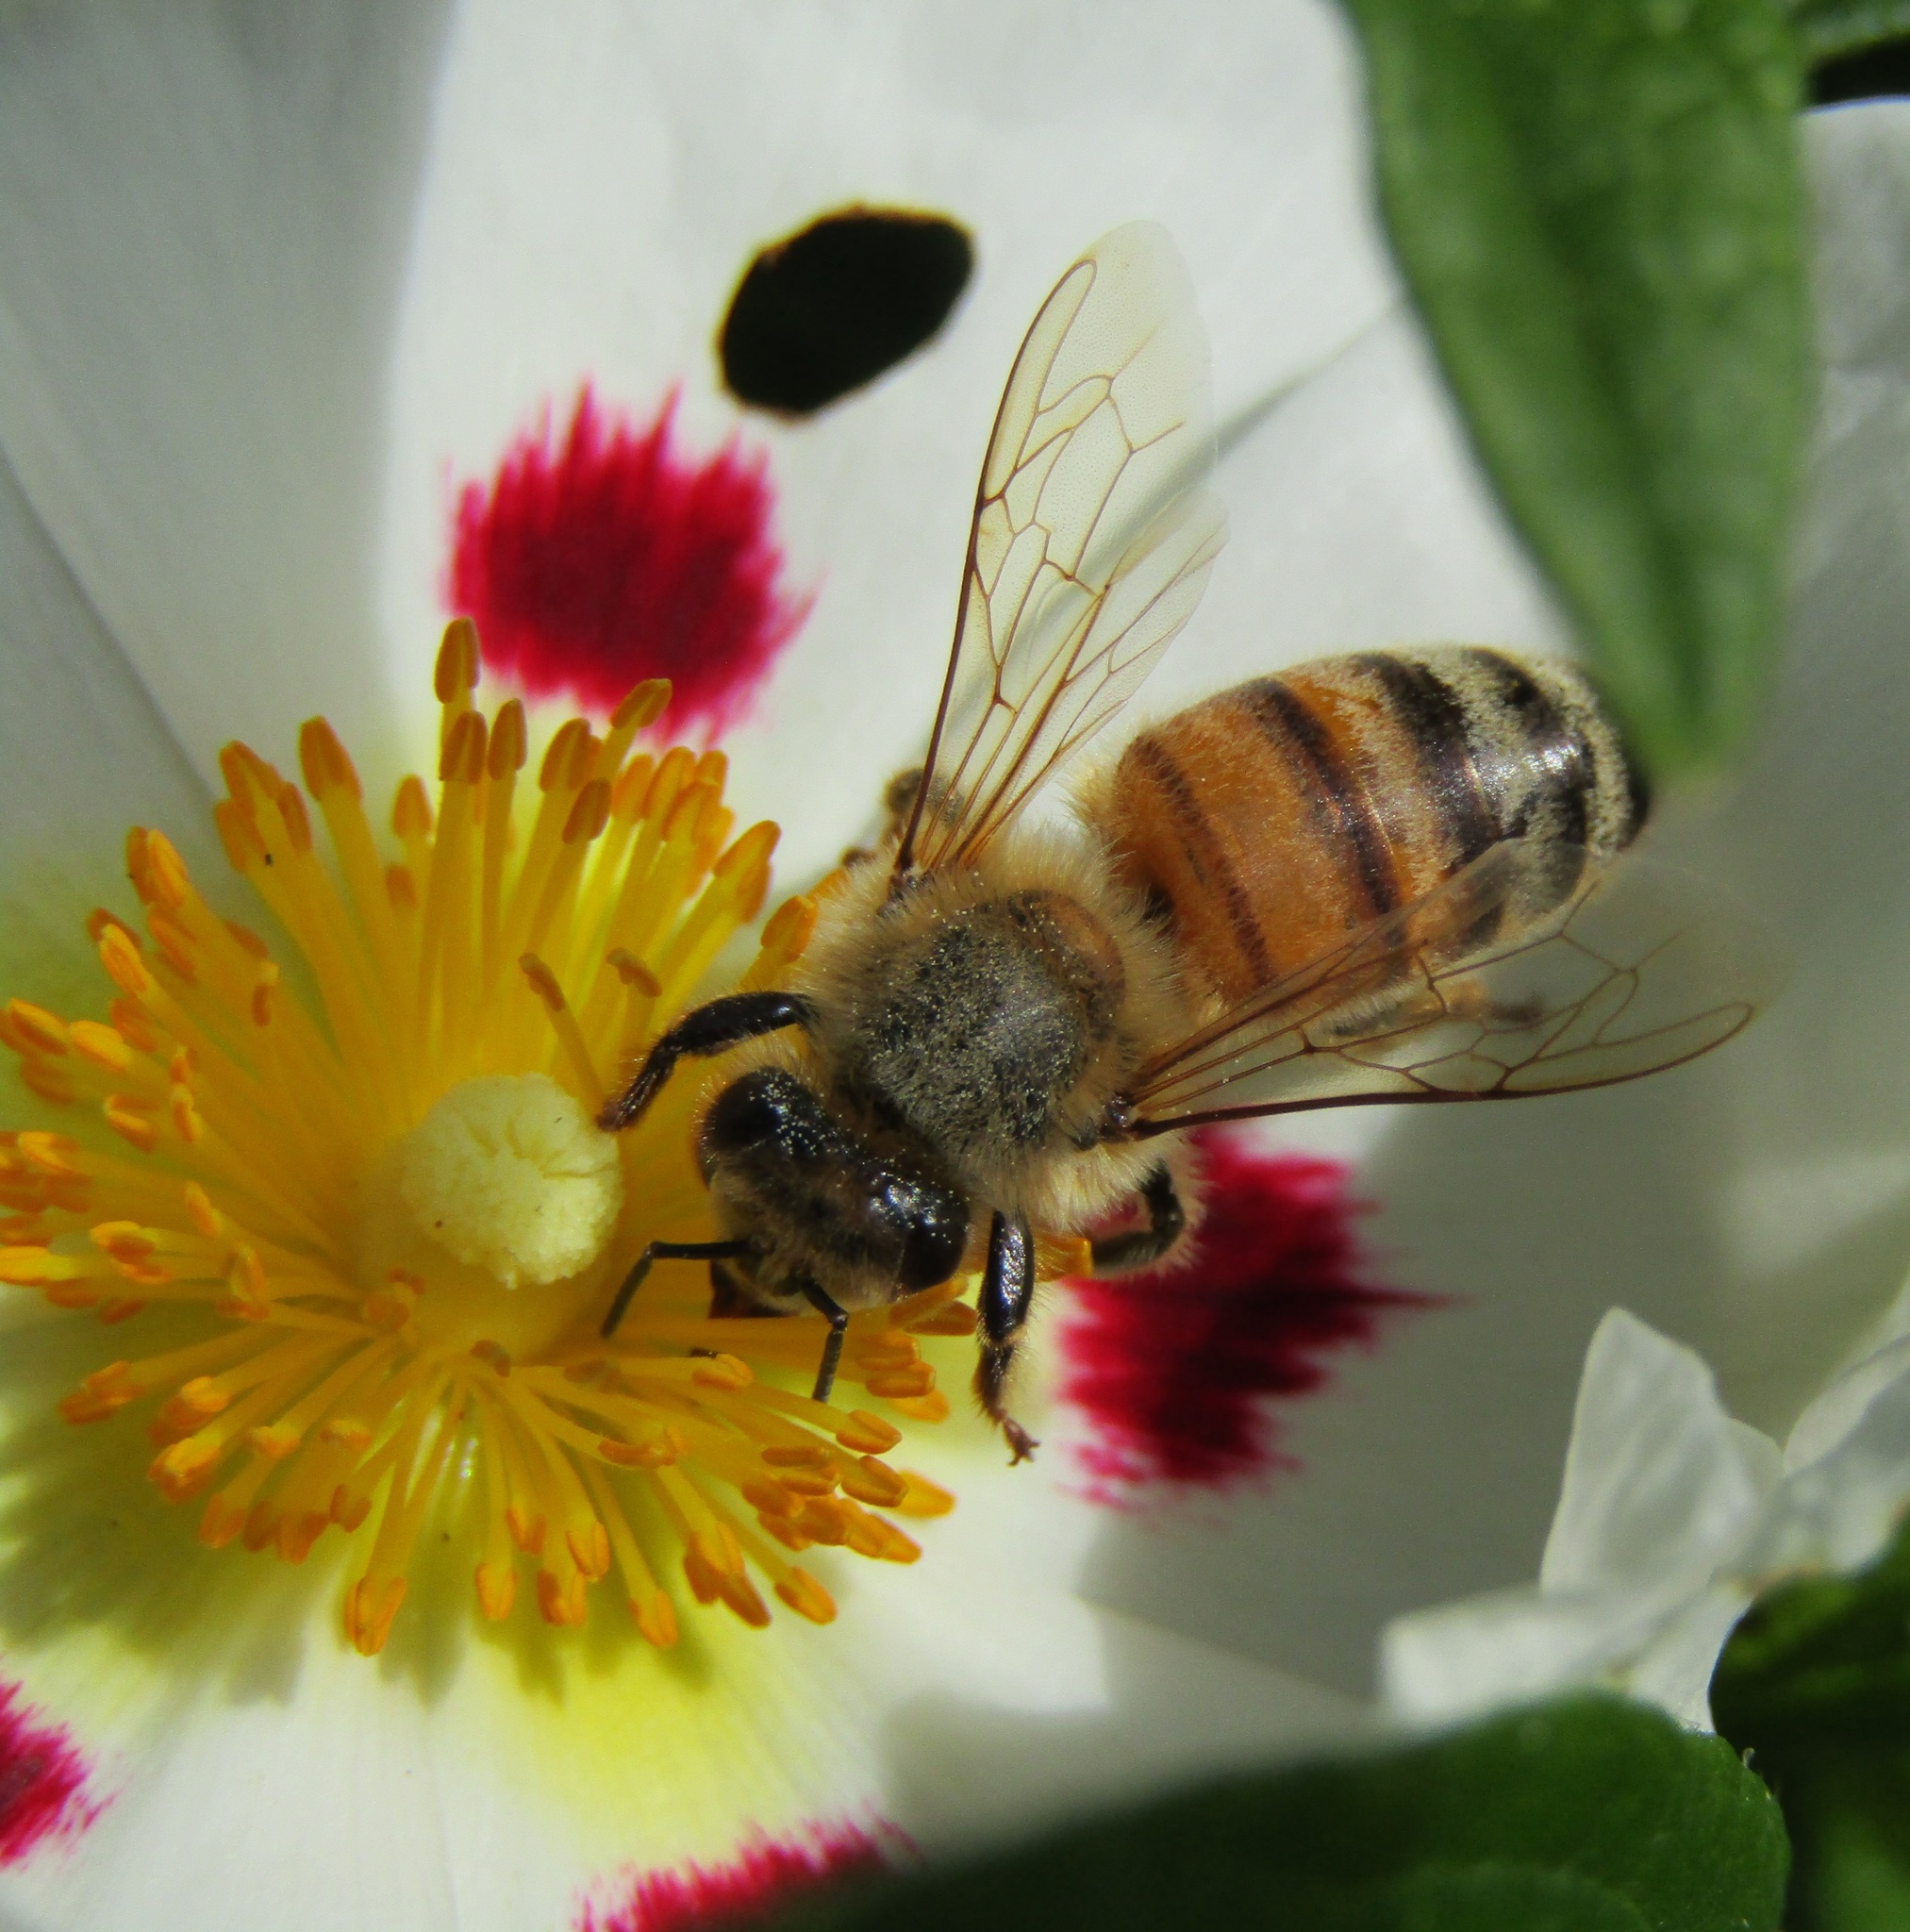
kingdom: Animalia
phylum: Arthropoda
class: Insecta
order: Hymenoptera
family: Apidae
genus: Apis
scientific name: Apis mellifera
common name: Honey bee
